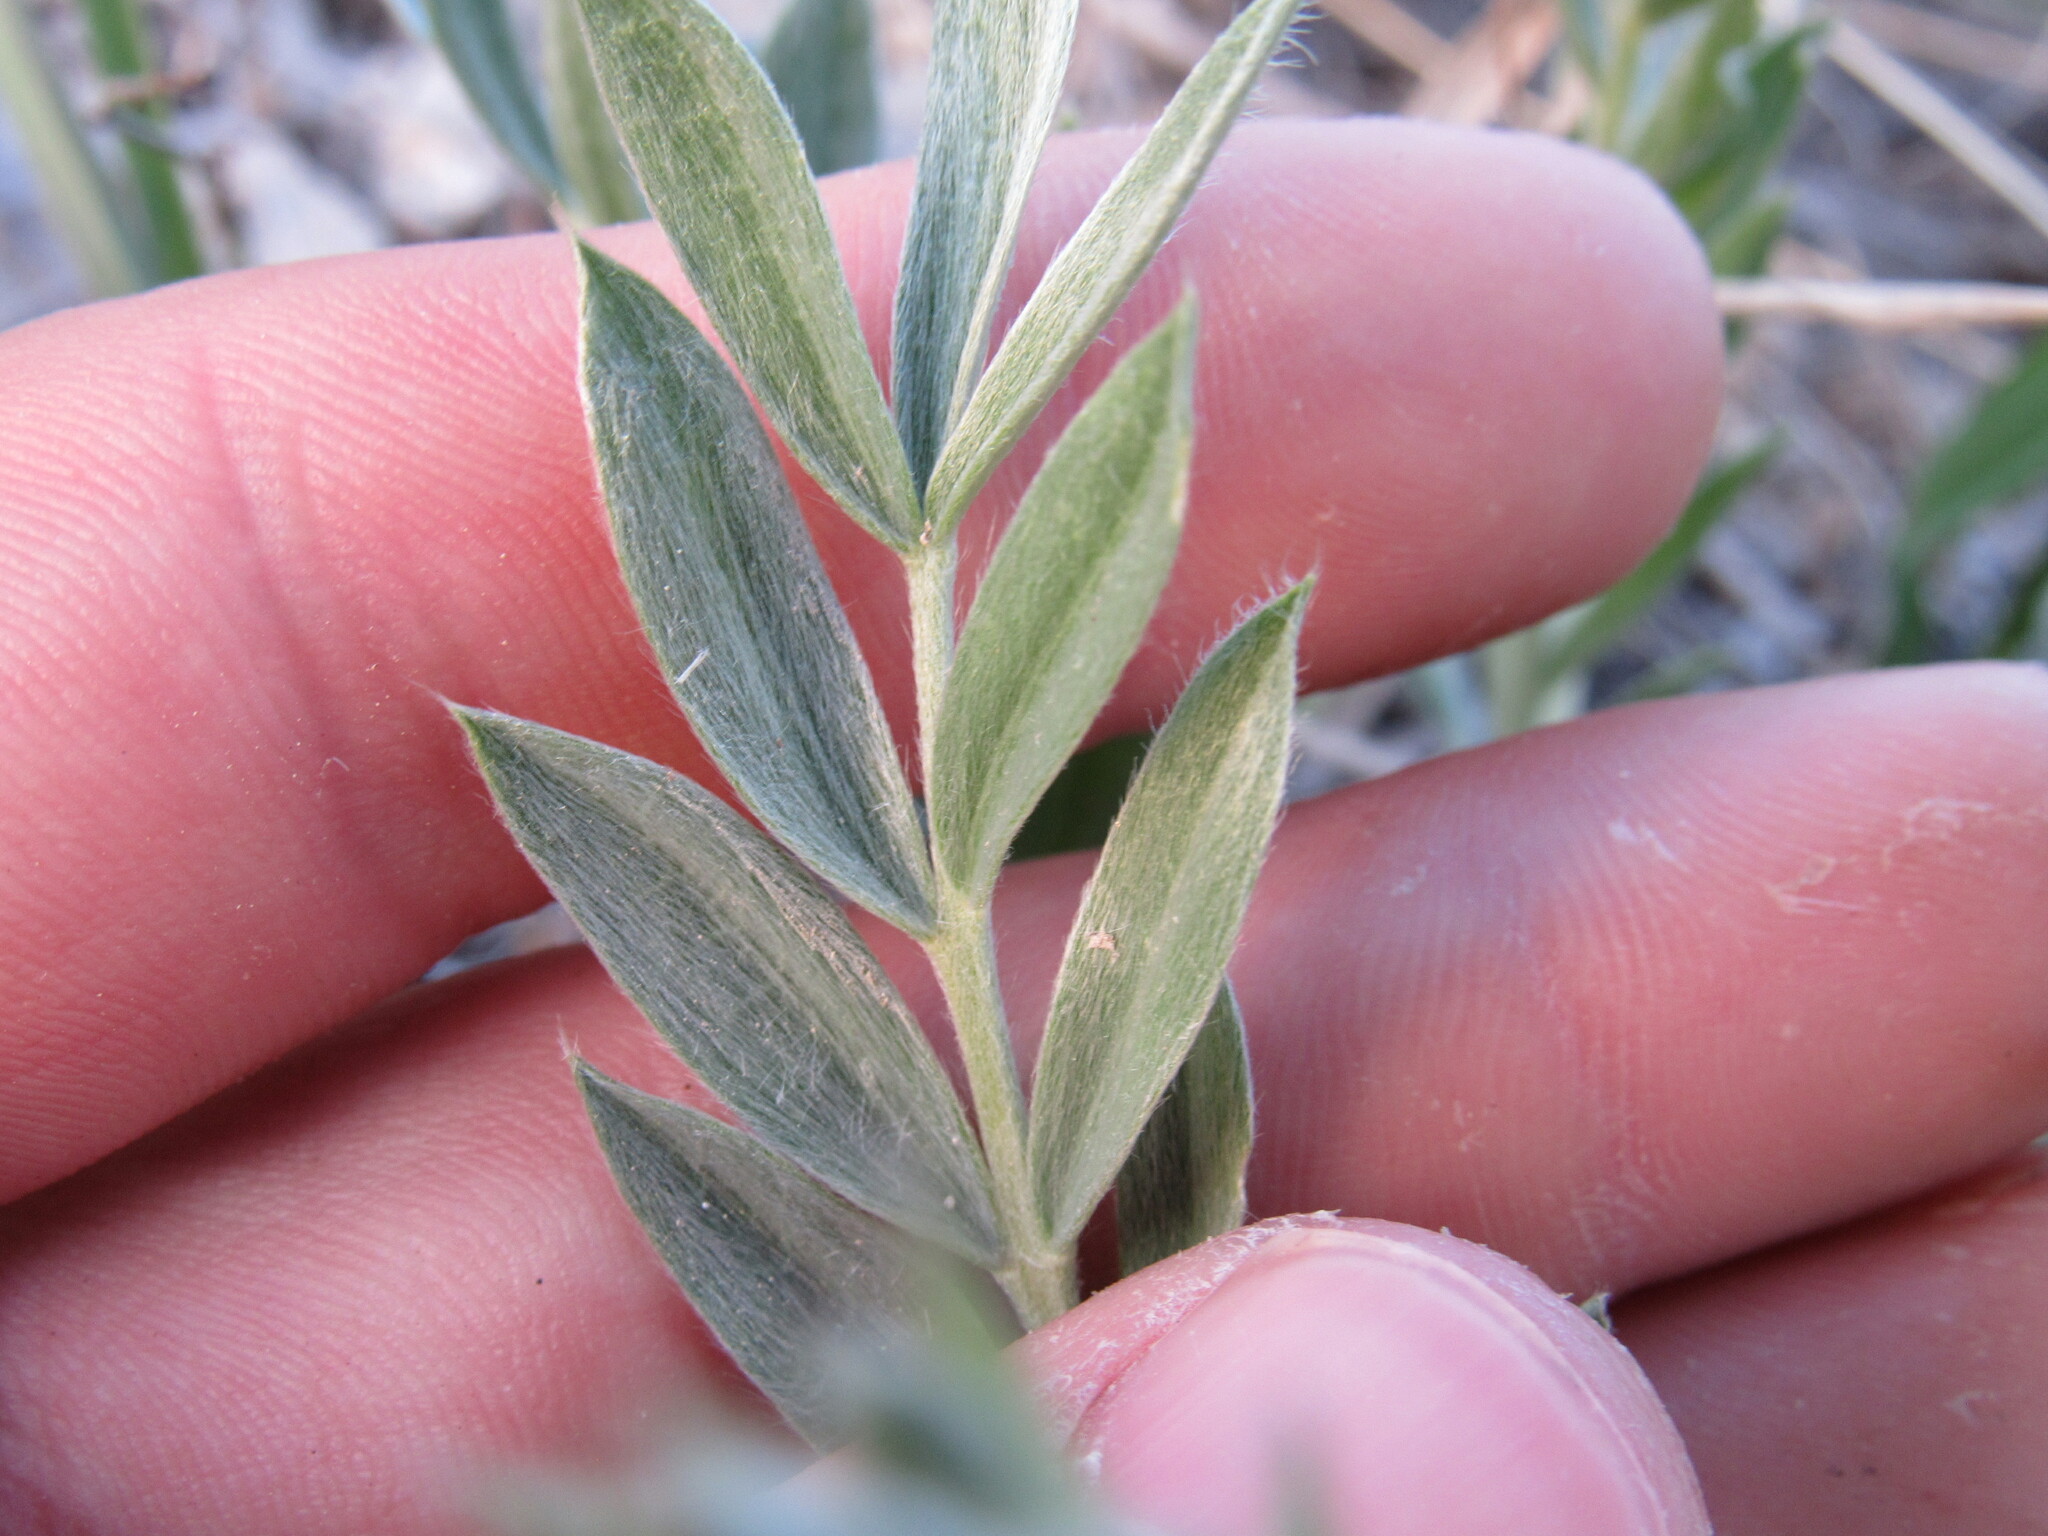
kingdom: Plantae
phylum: Tracheophyta
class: Magnoliopsida
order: Fabales
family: Fabaceae
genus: Oxytropis
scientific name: Oxytropis sericea
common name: Silky locoweed
